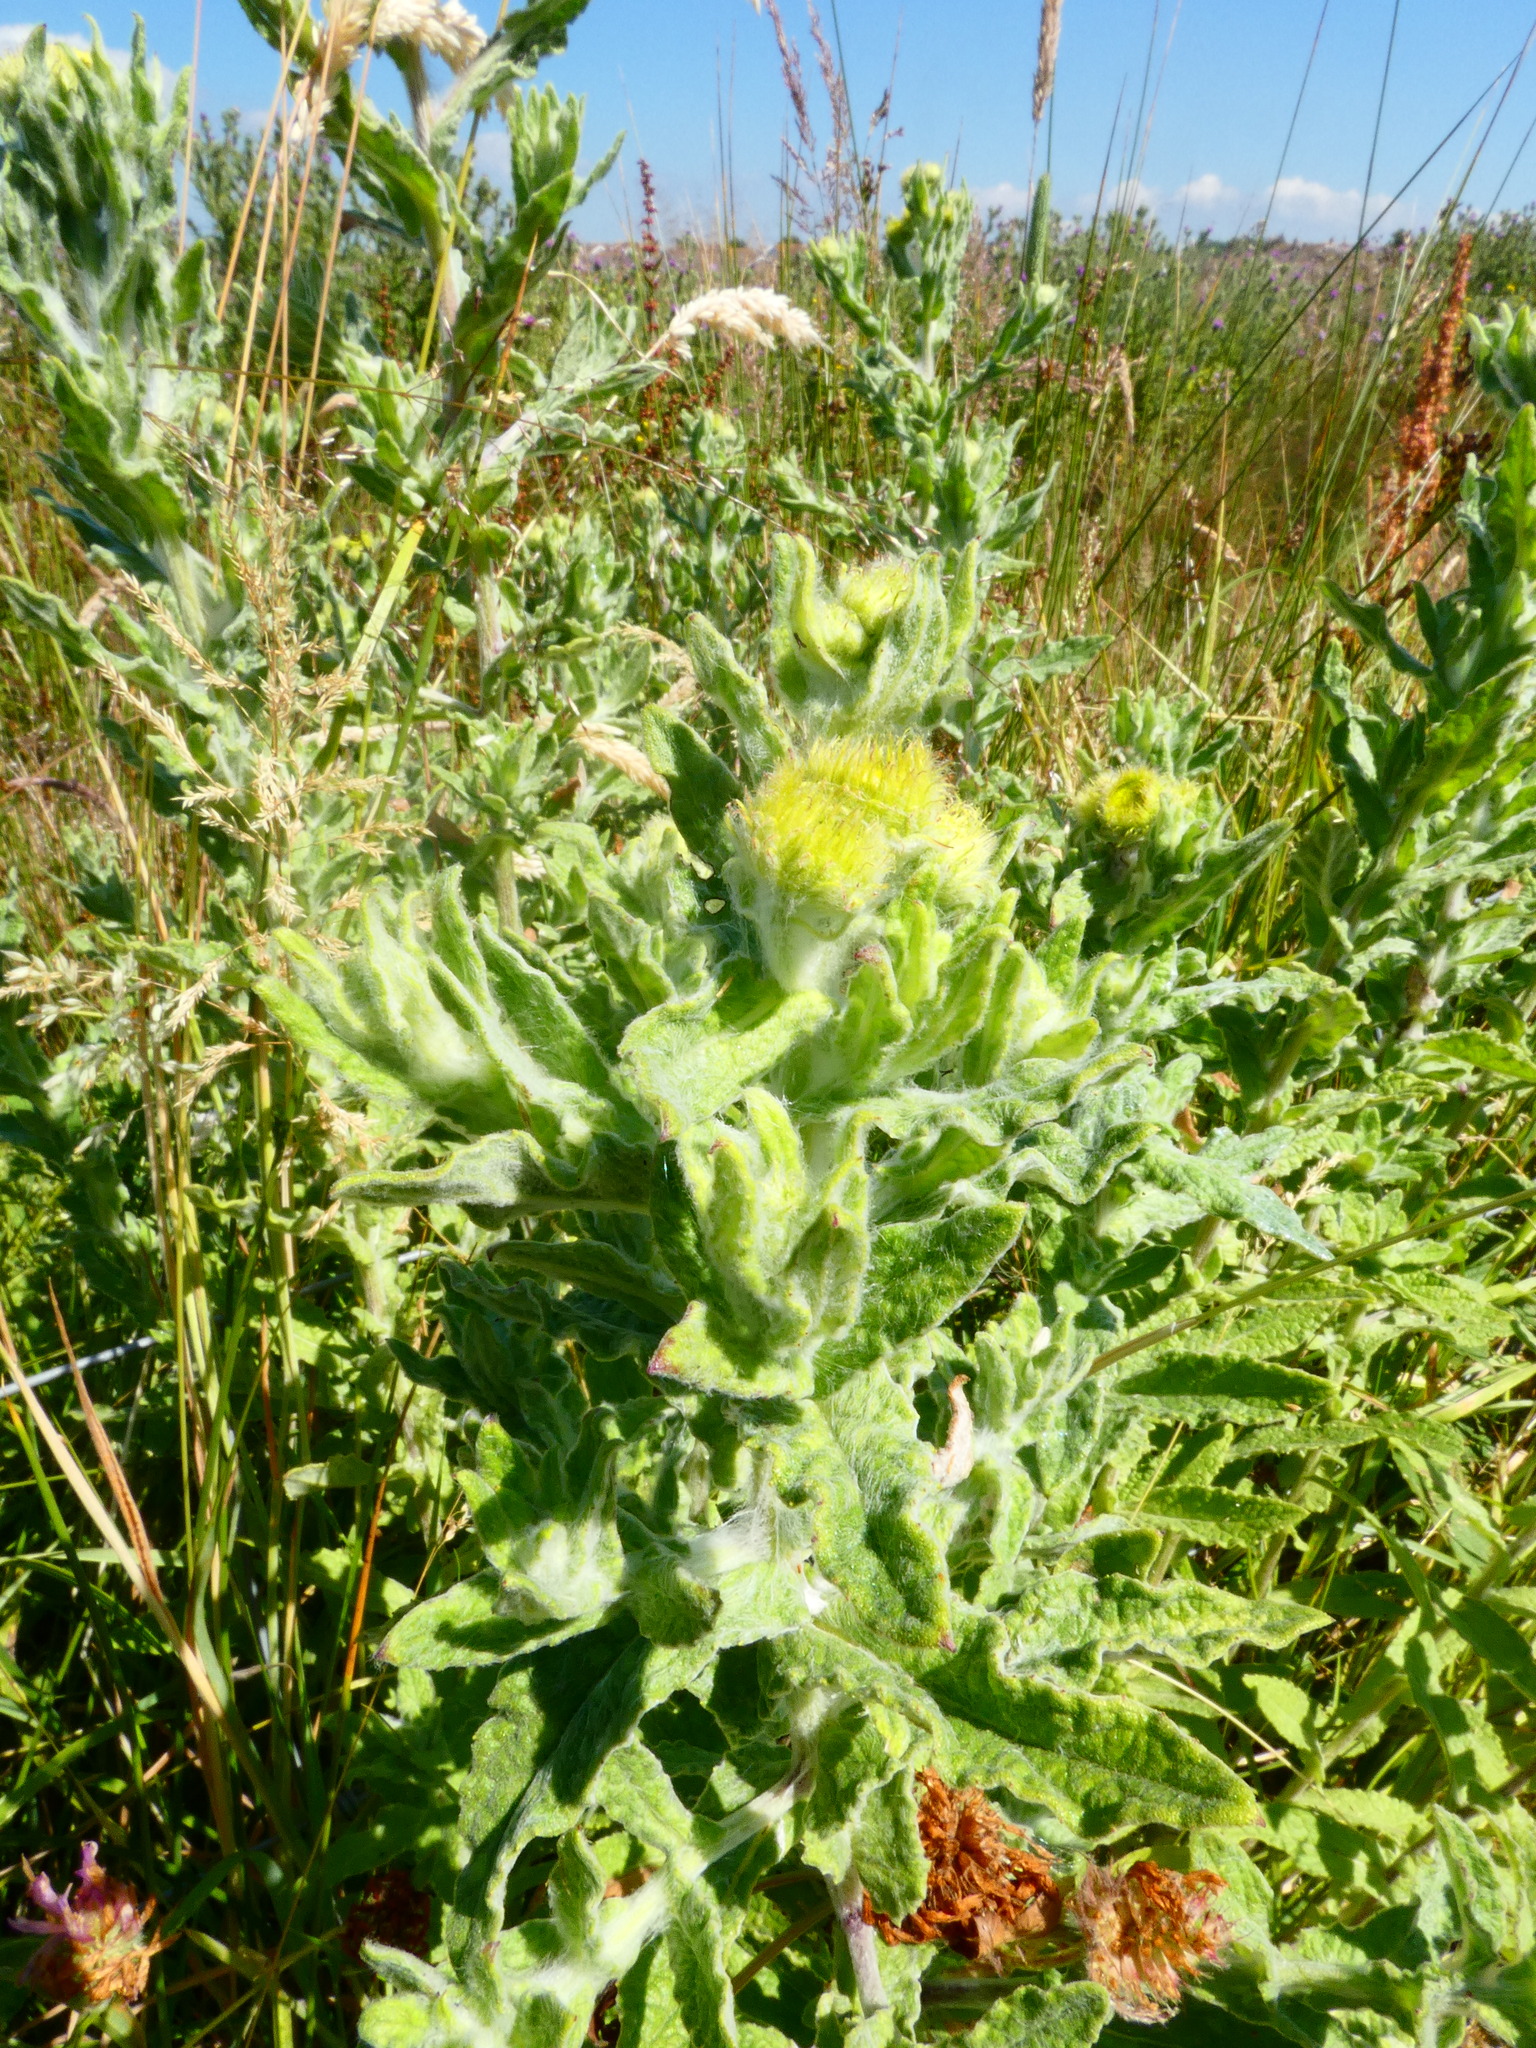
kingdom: Plantae
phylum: Tracheophyta
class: Magnoliopsida
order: Asterales
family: Asteraceae
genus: Pulicaria
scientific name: Pulicaria dysenterica
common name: Common fleabane
